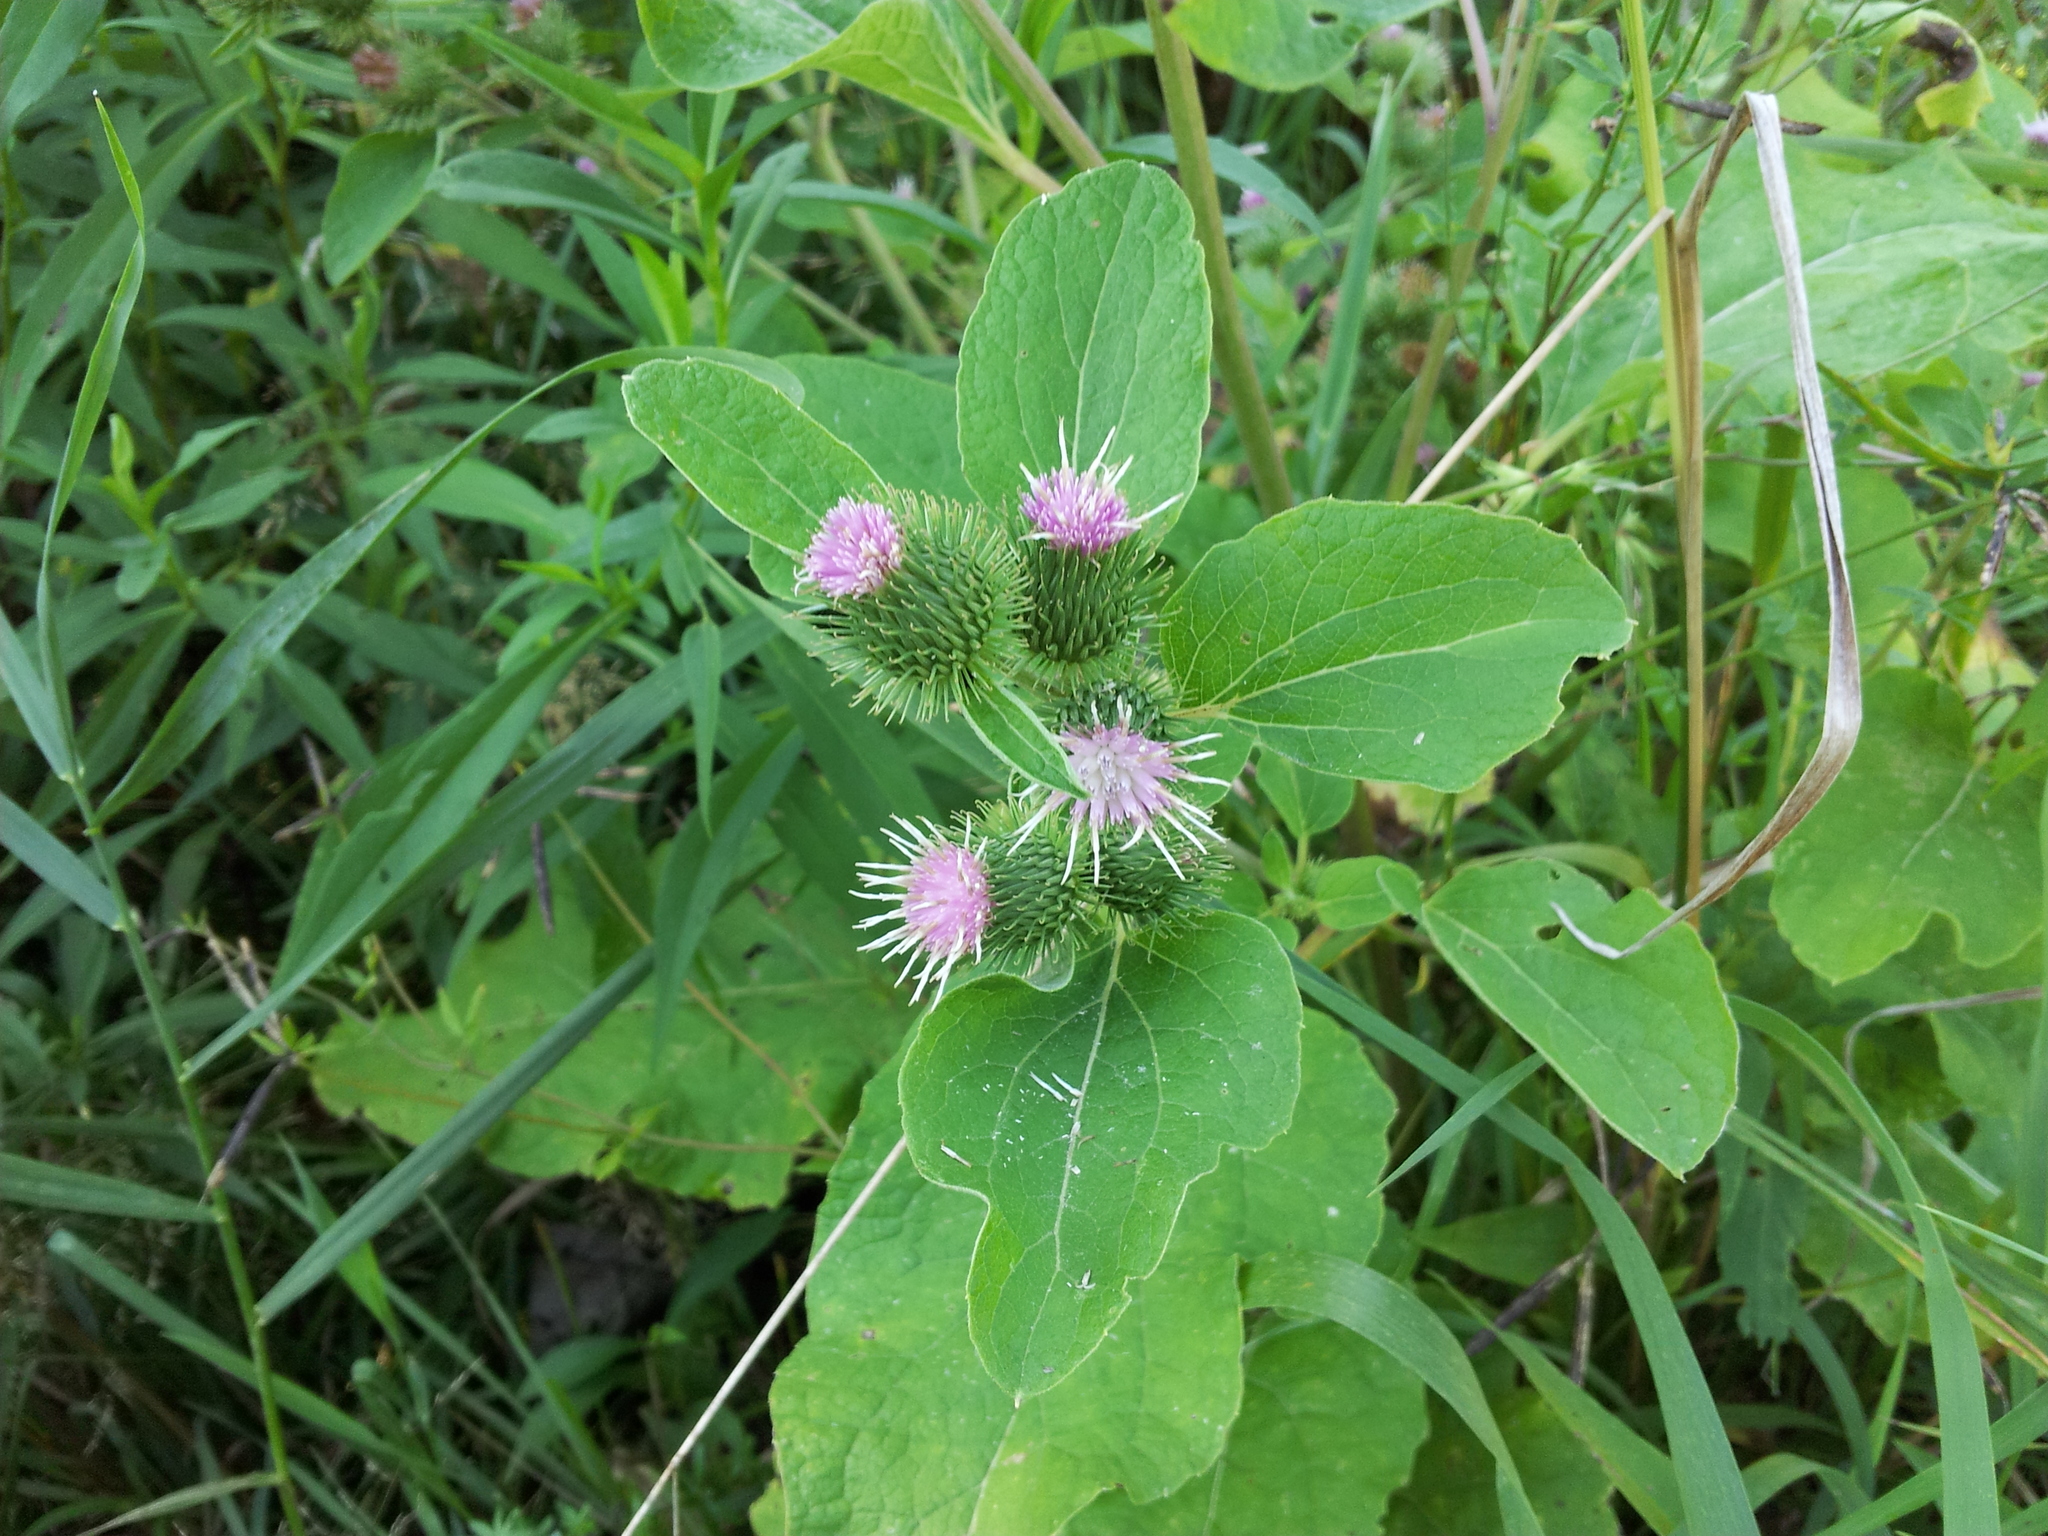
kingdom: Plantae
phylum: Tracheophyta
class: Magnoliopsida
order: Asterales
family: Asteraceae
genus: Arctium
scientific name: Arctium minus
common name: Lesser burdock
